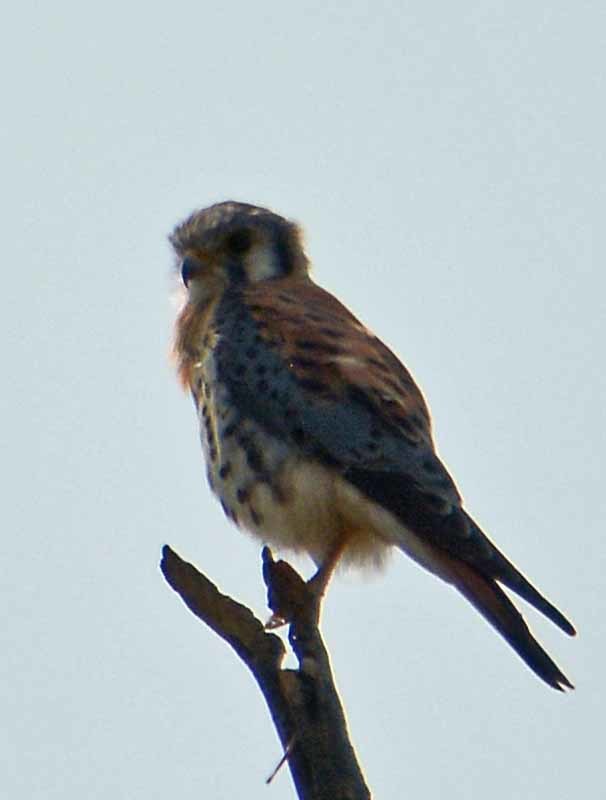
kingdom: Animalia
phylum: Chordata
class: Aves
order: Falconiformes
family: Falconidae
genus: Falco
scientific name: Falco sparverius
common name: American kestrel
